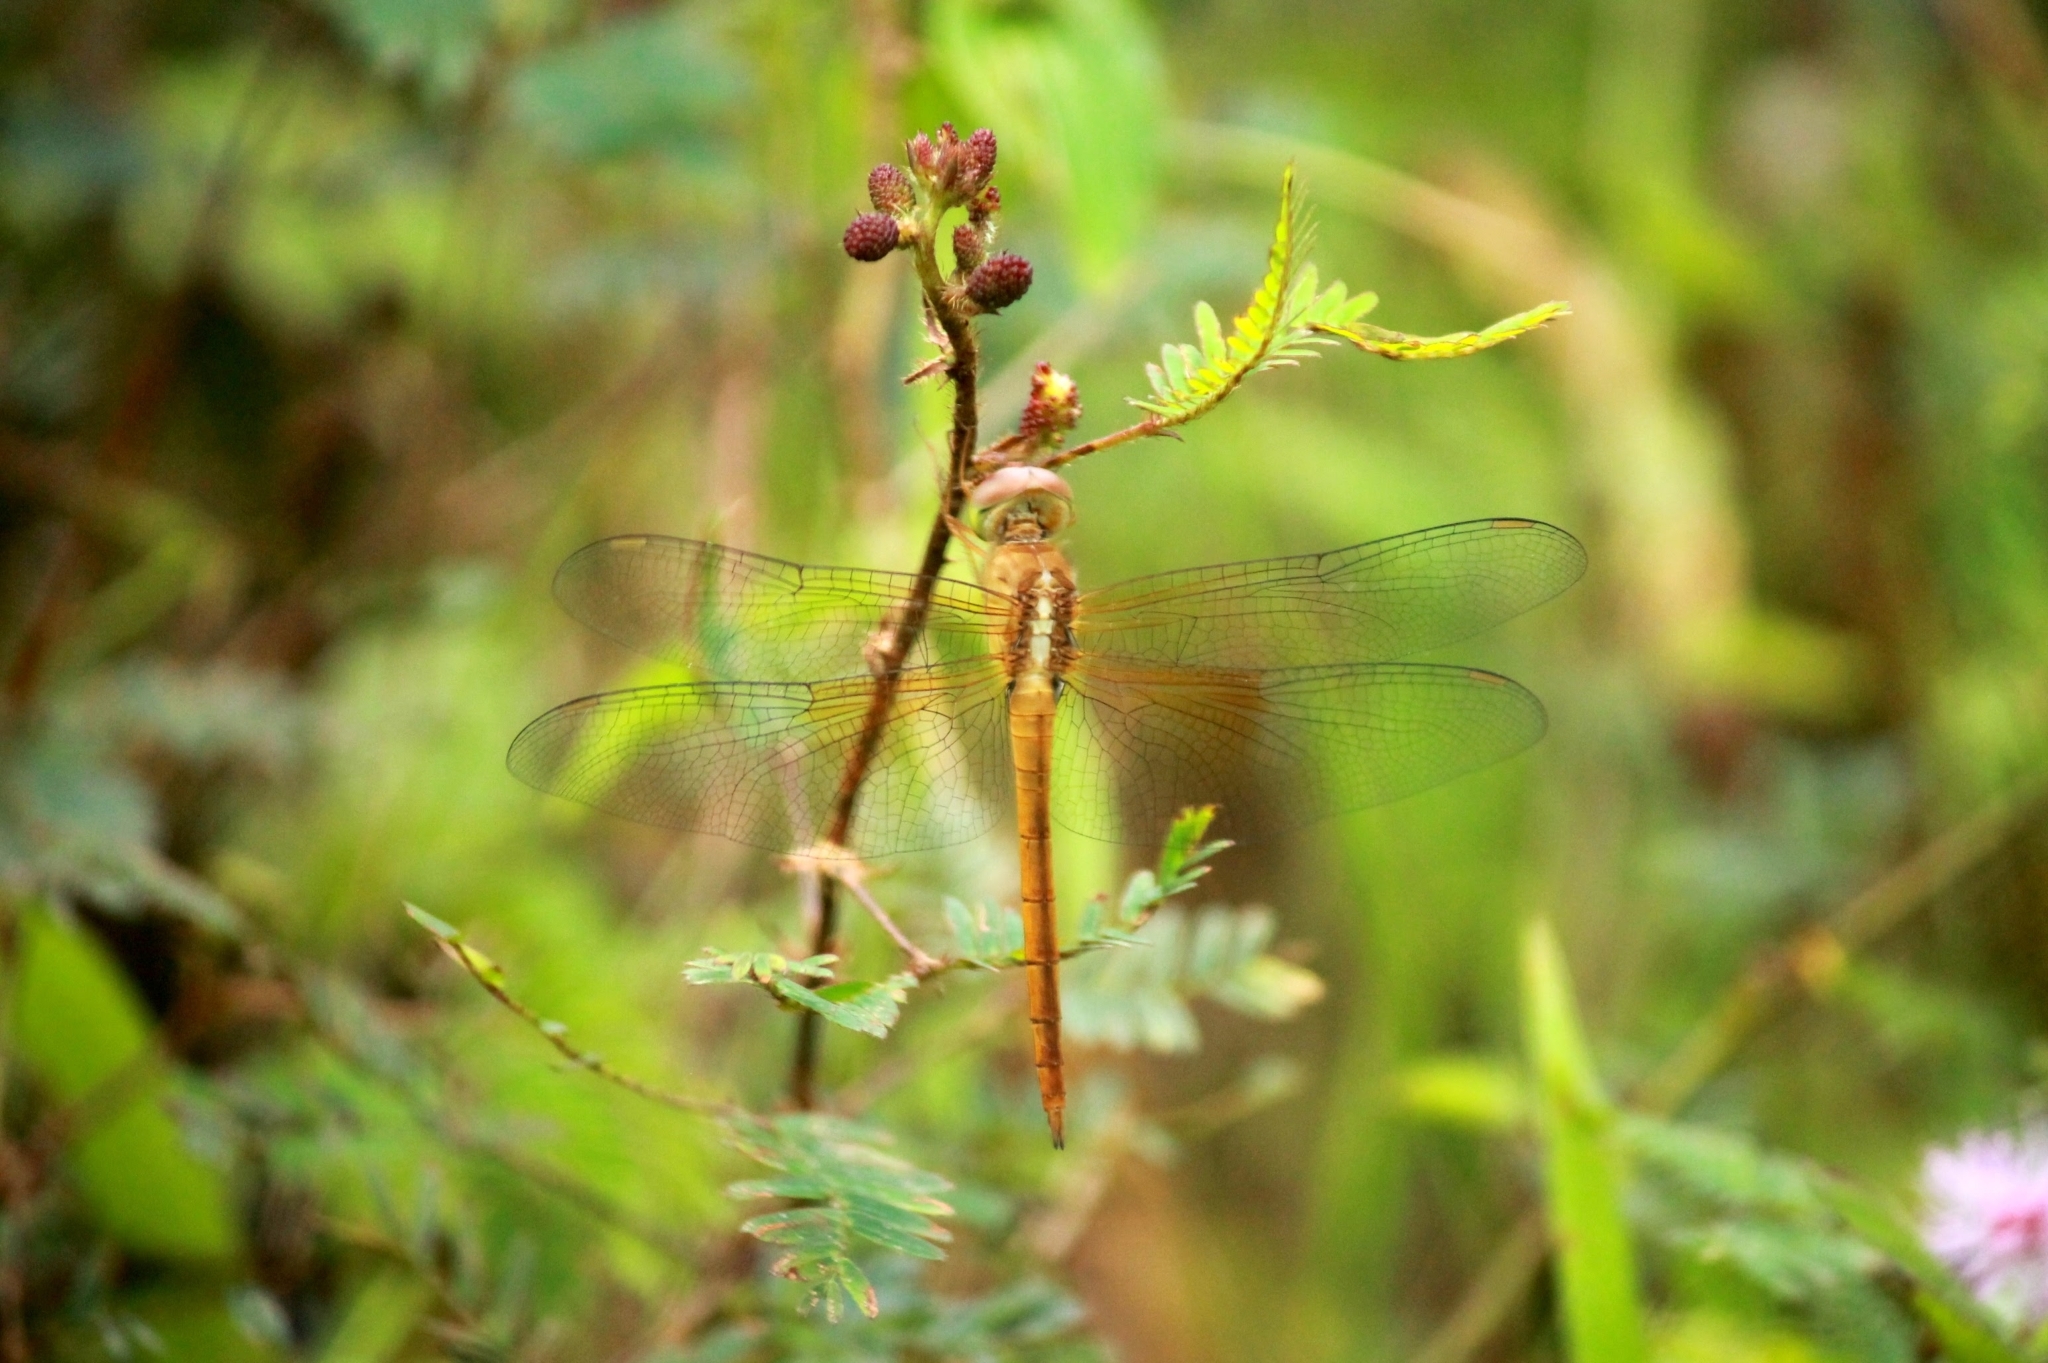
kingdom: Animalia
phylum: Arthropoda
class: Insecta
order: Odonata
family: Libellulidae
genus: Tholymis
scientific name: Tholymis tillarga
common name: Coral-tailed cloud wing
